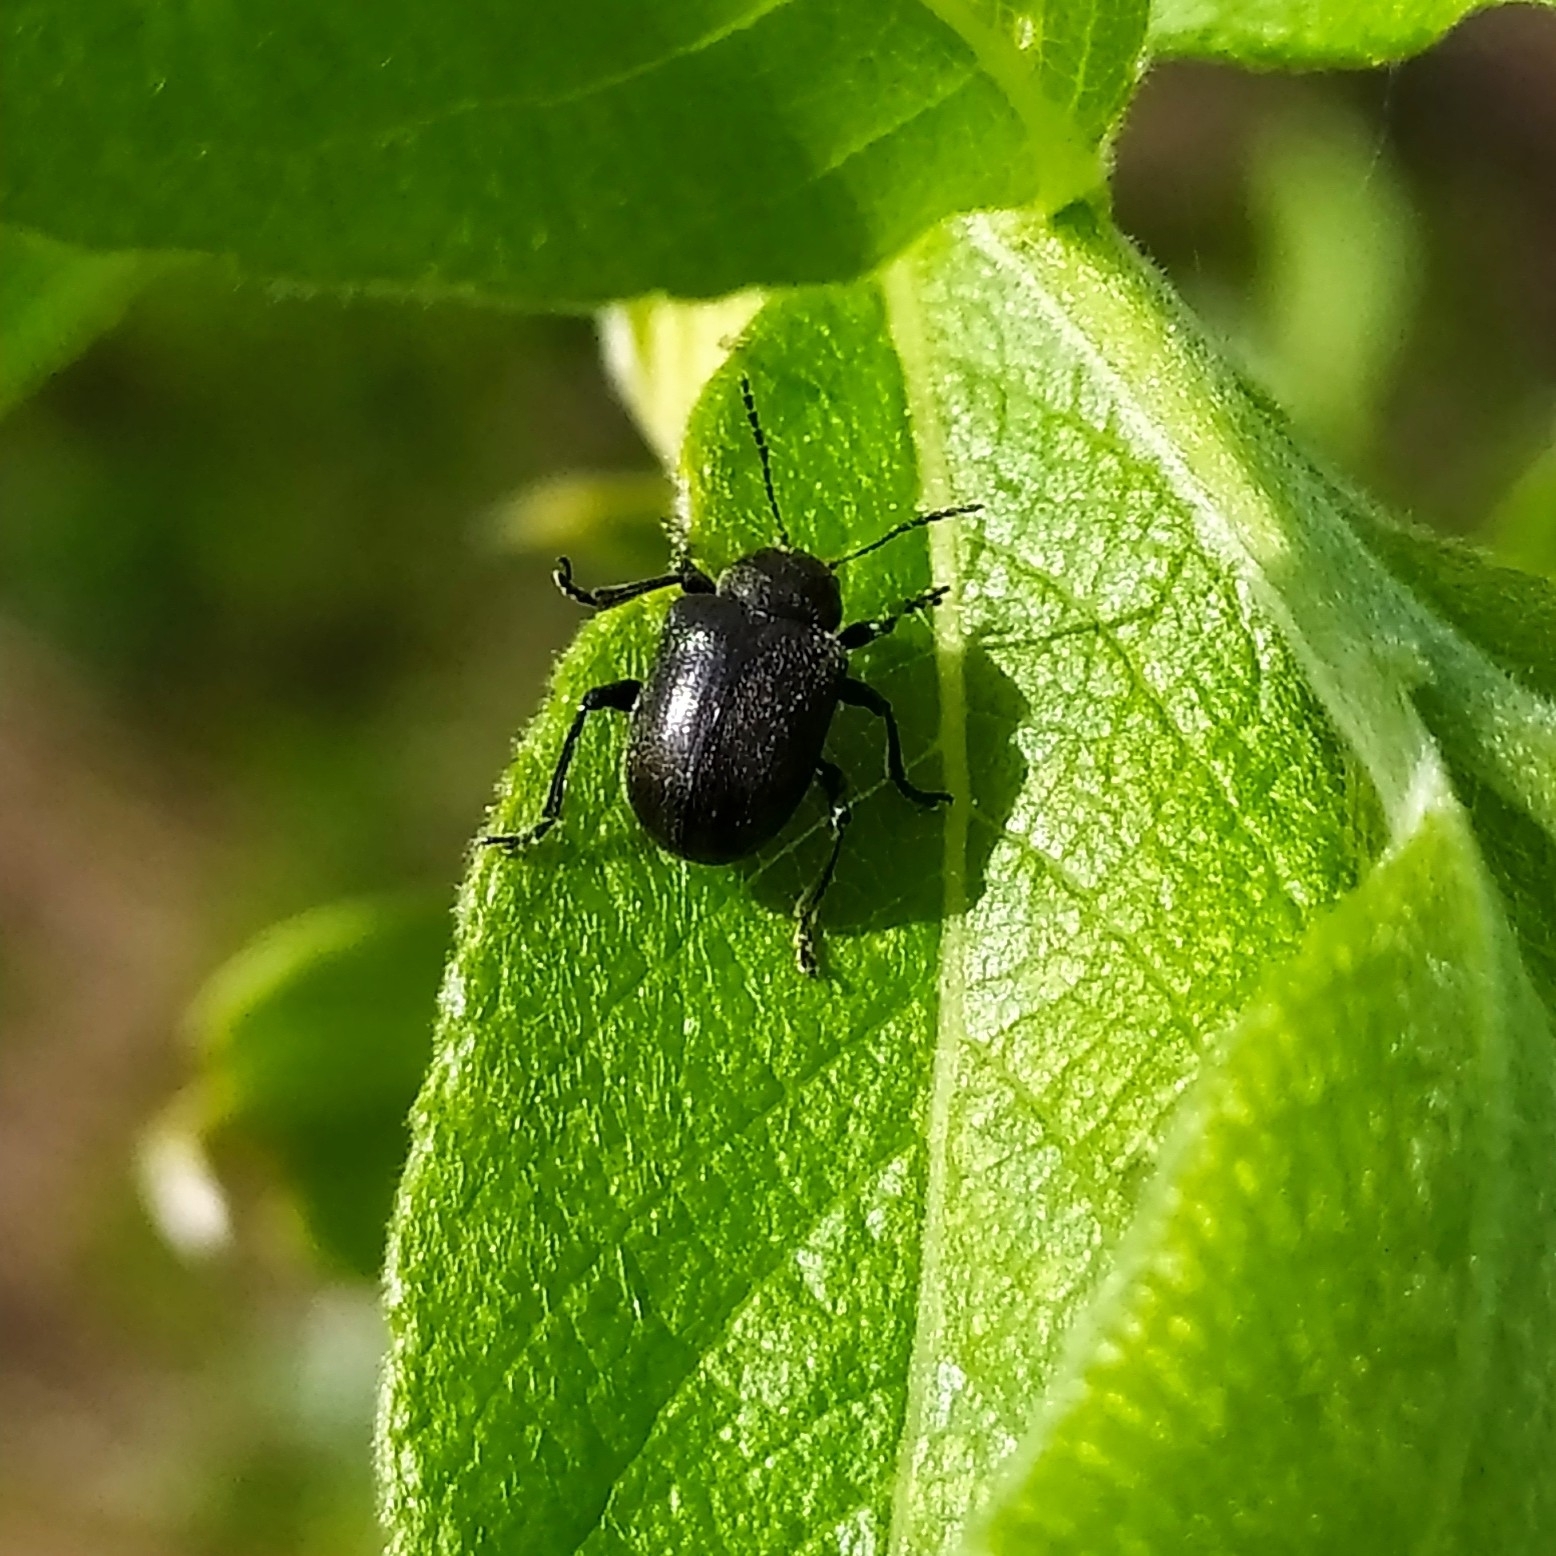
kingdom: Animalia
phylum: Arthropoda
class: Insecta
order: Coleoptera
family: Chrysomelidae
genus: Bromius
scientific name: Bromius obscurus
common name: Western grape rootworm
